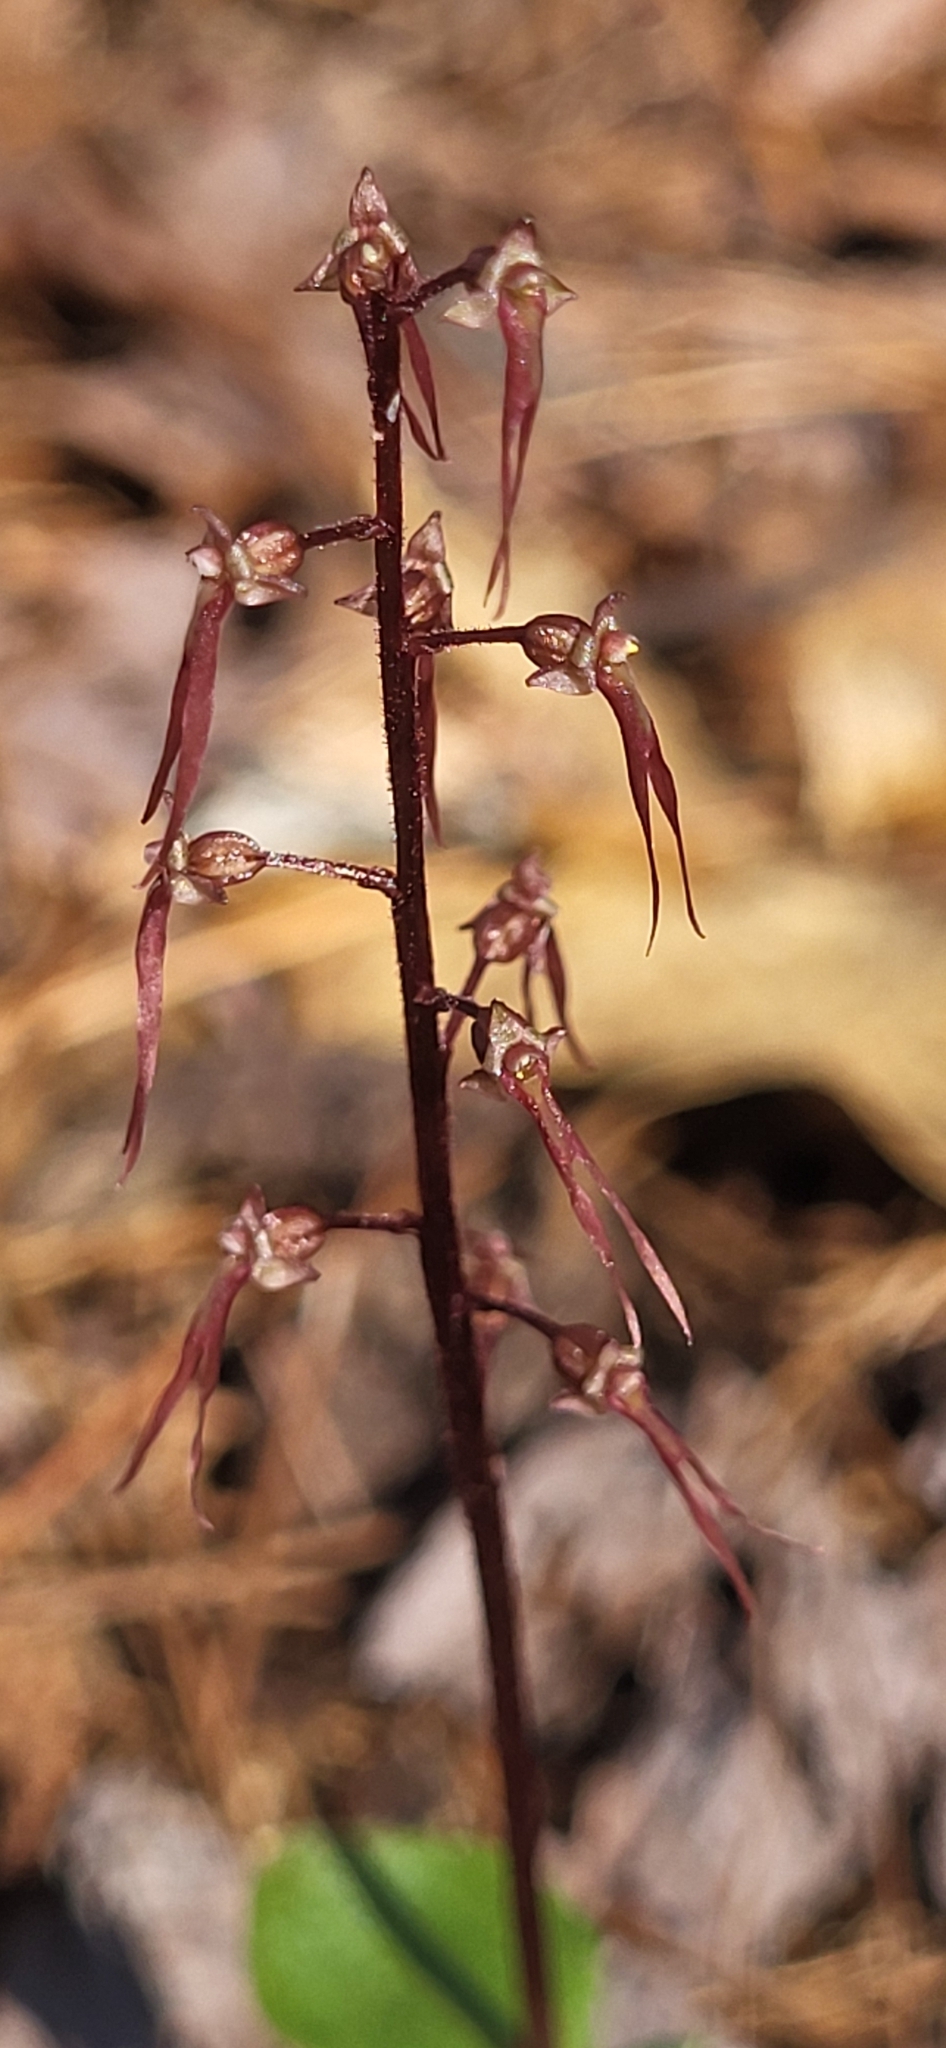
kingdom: Plantae
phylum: Tracheophyta
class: Liliopsida
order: Asparagales
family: Orchidaceae
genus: Neottia
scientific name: Neottia bifolia
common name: Southern twayblade
